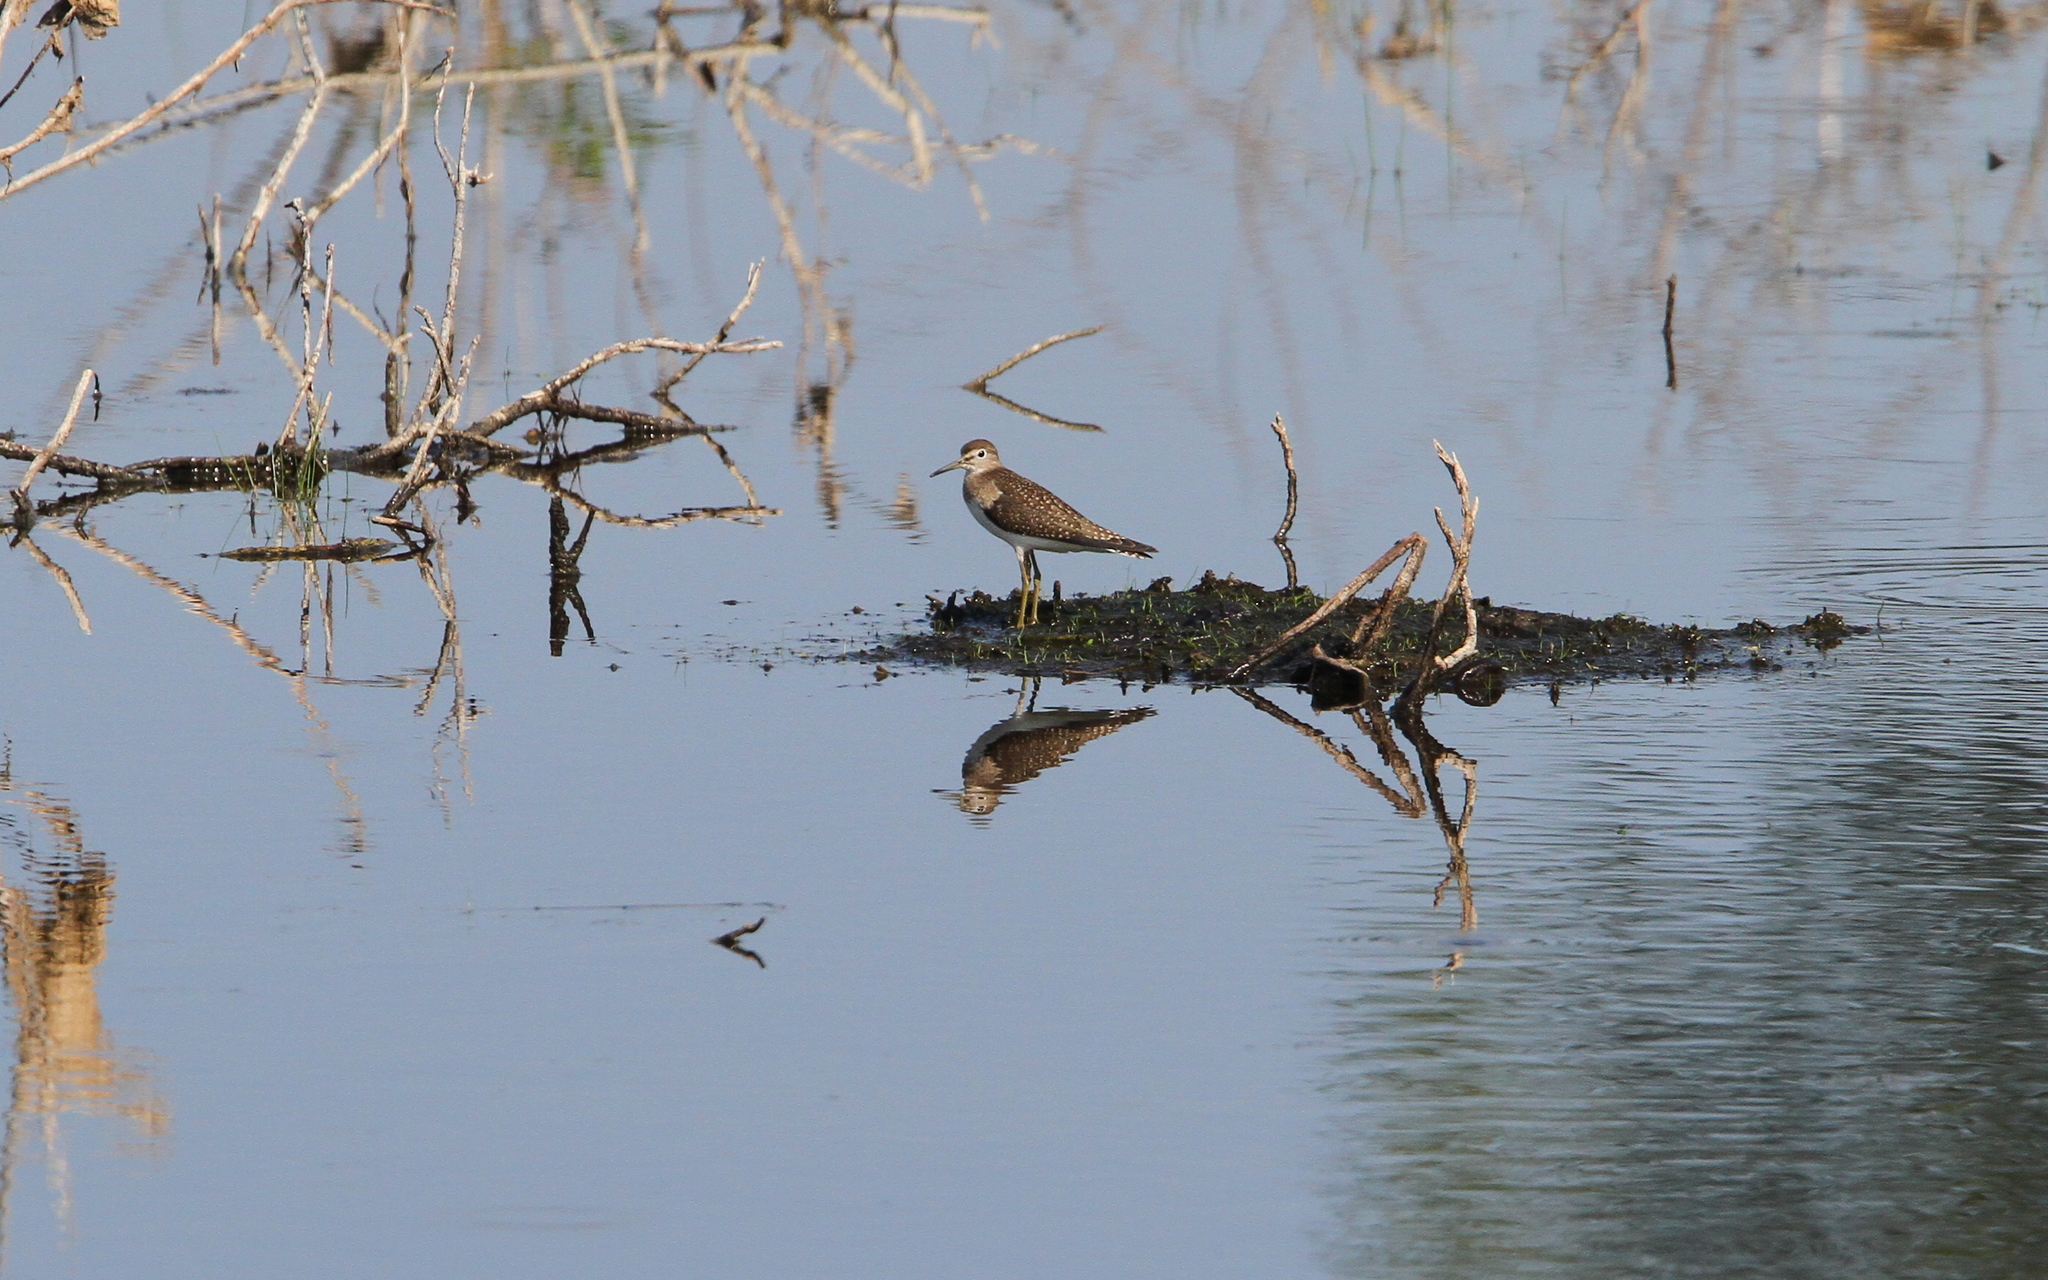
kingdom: Animalia
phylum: Chordata
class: Aves
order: Charadriiformes
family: Scolopacidae
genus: Tringa
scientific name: Tringa solitaria
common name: Solitary sandpiper
